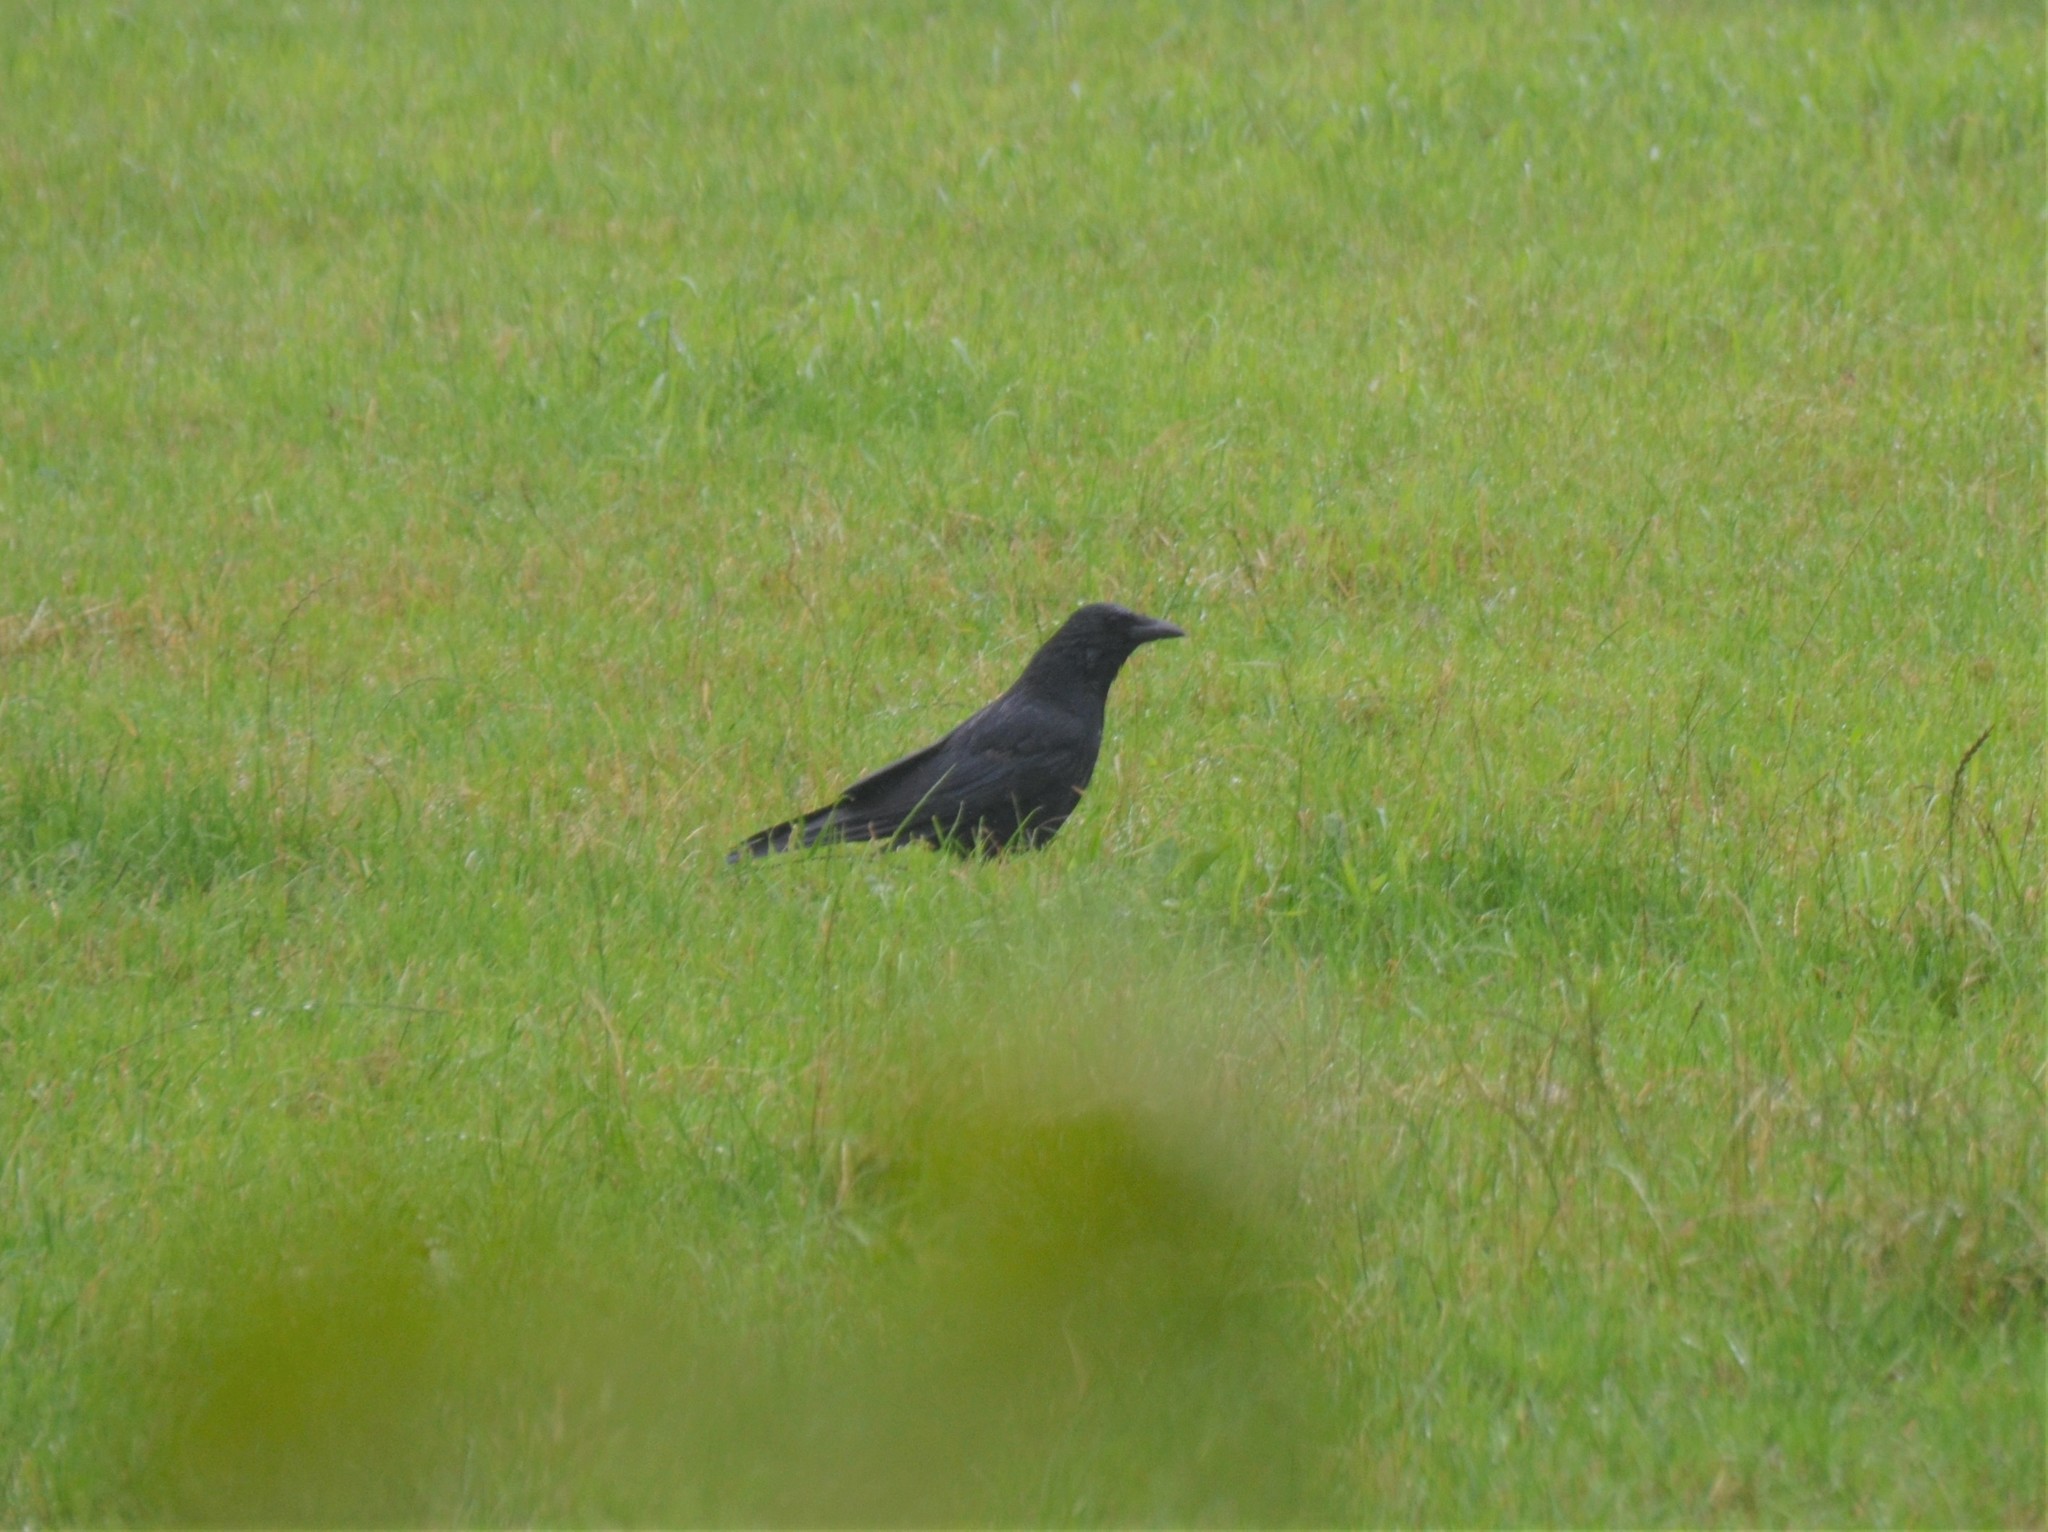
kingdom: Animalia
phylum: Chordata
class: Aves
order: Passeriformes
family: Corvidae
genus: Corvus
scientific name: Corvus corone
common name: Carrion crow
